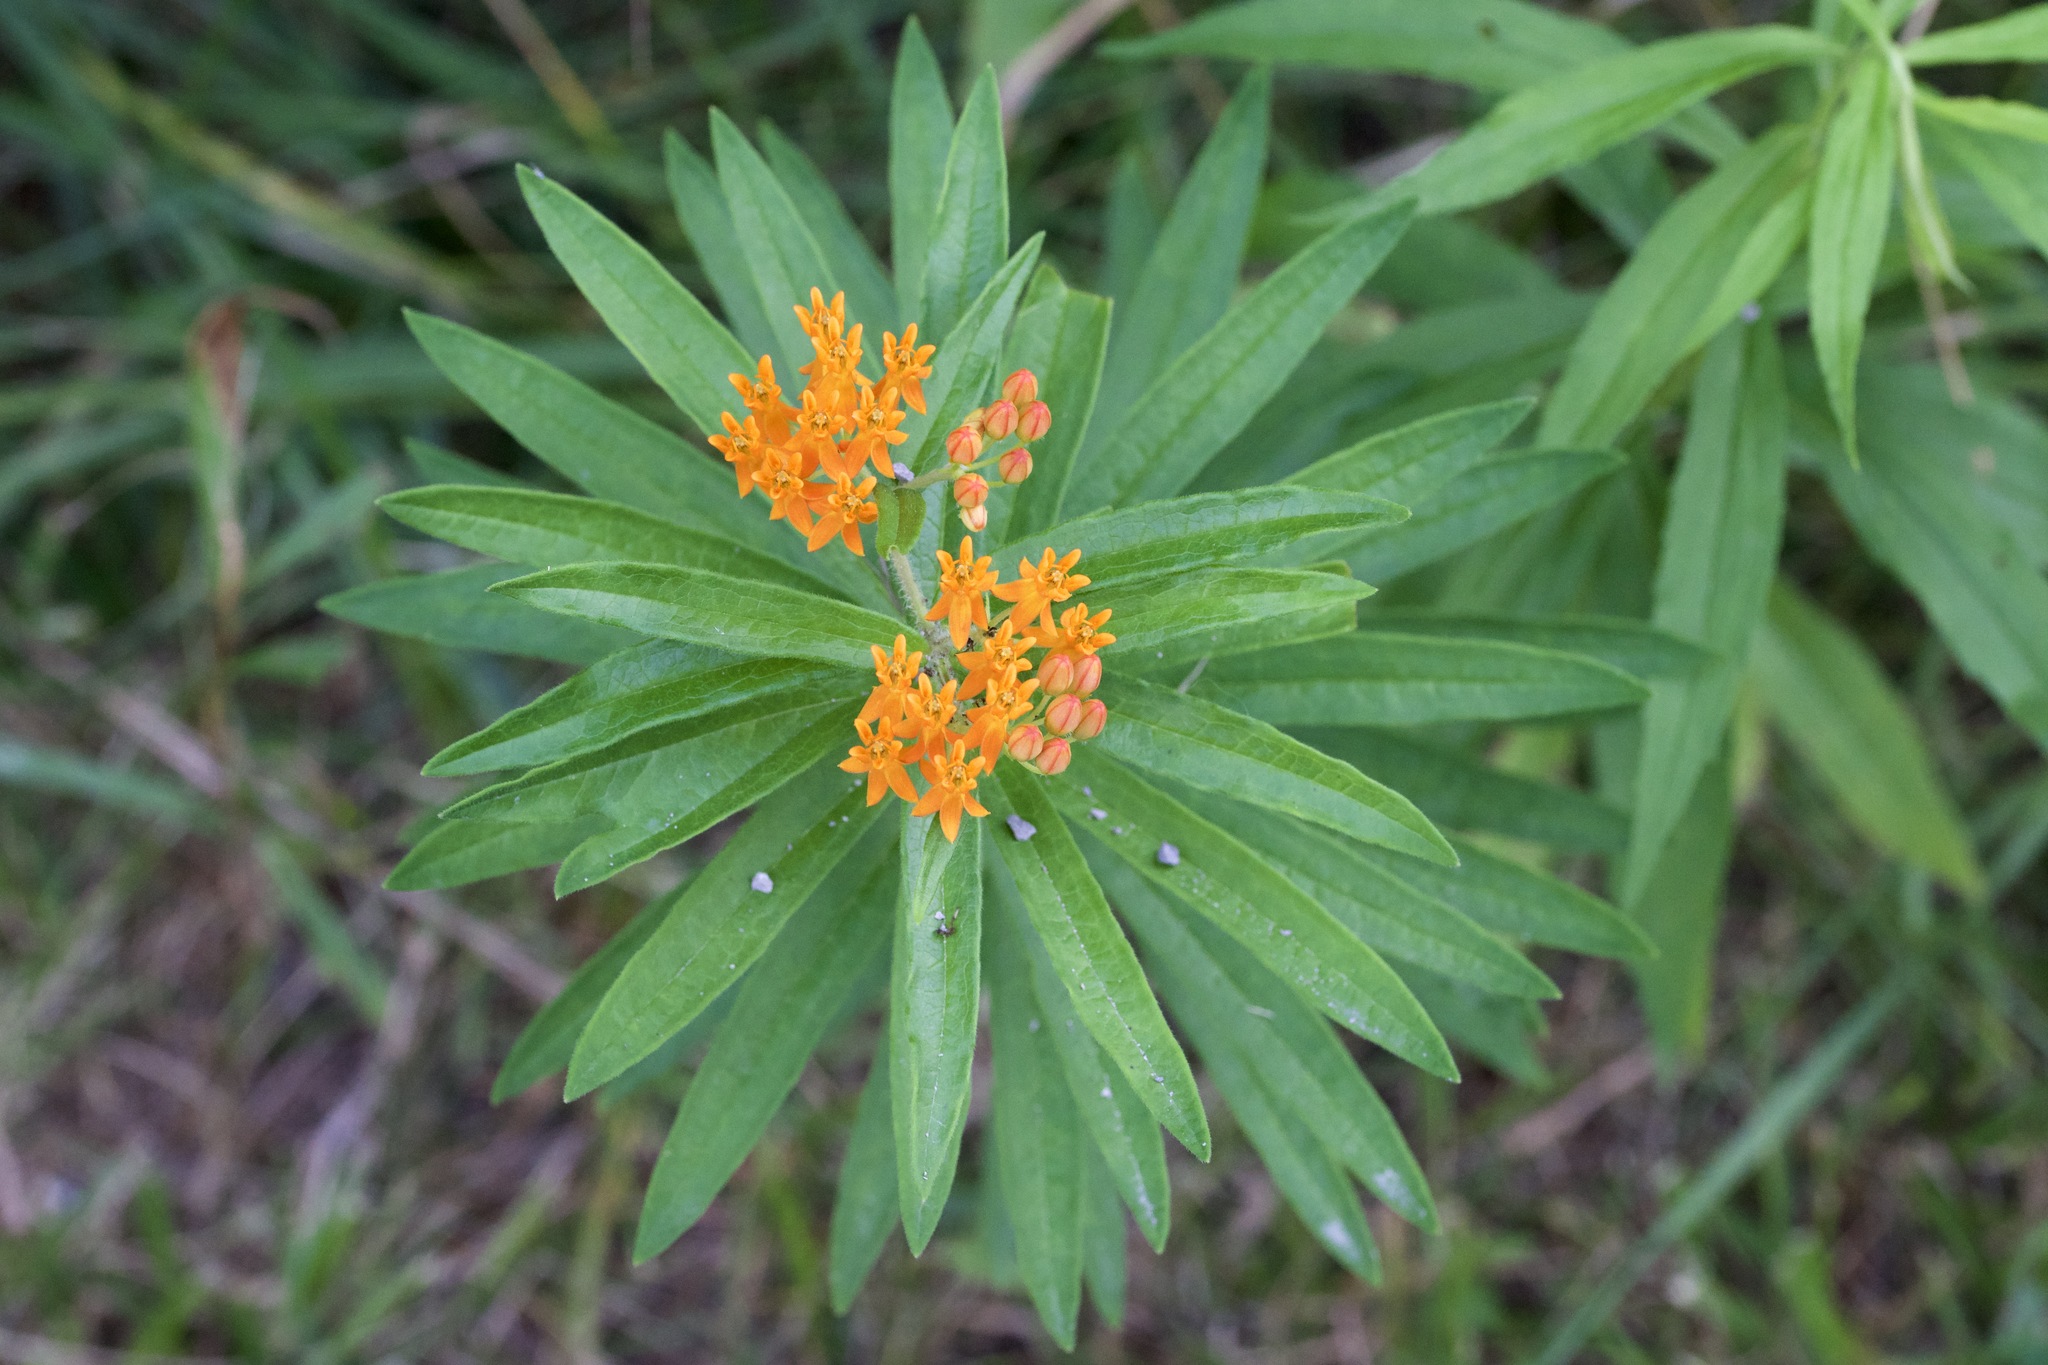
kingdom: Plantae
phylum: Tracheophyta
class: Magnoliopsida
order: Gentianales
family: Apocynaceae
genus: Asclepias
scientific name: Asclepias tuberosa
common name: Butterfly milkweed
